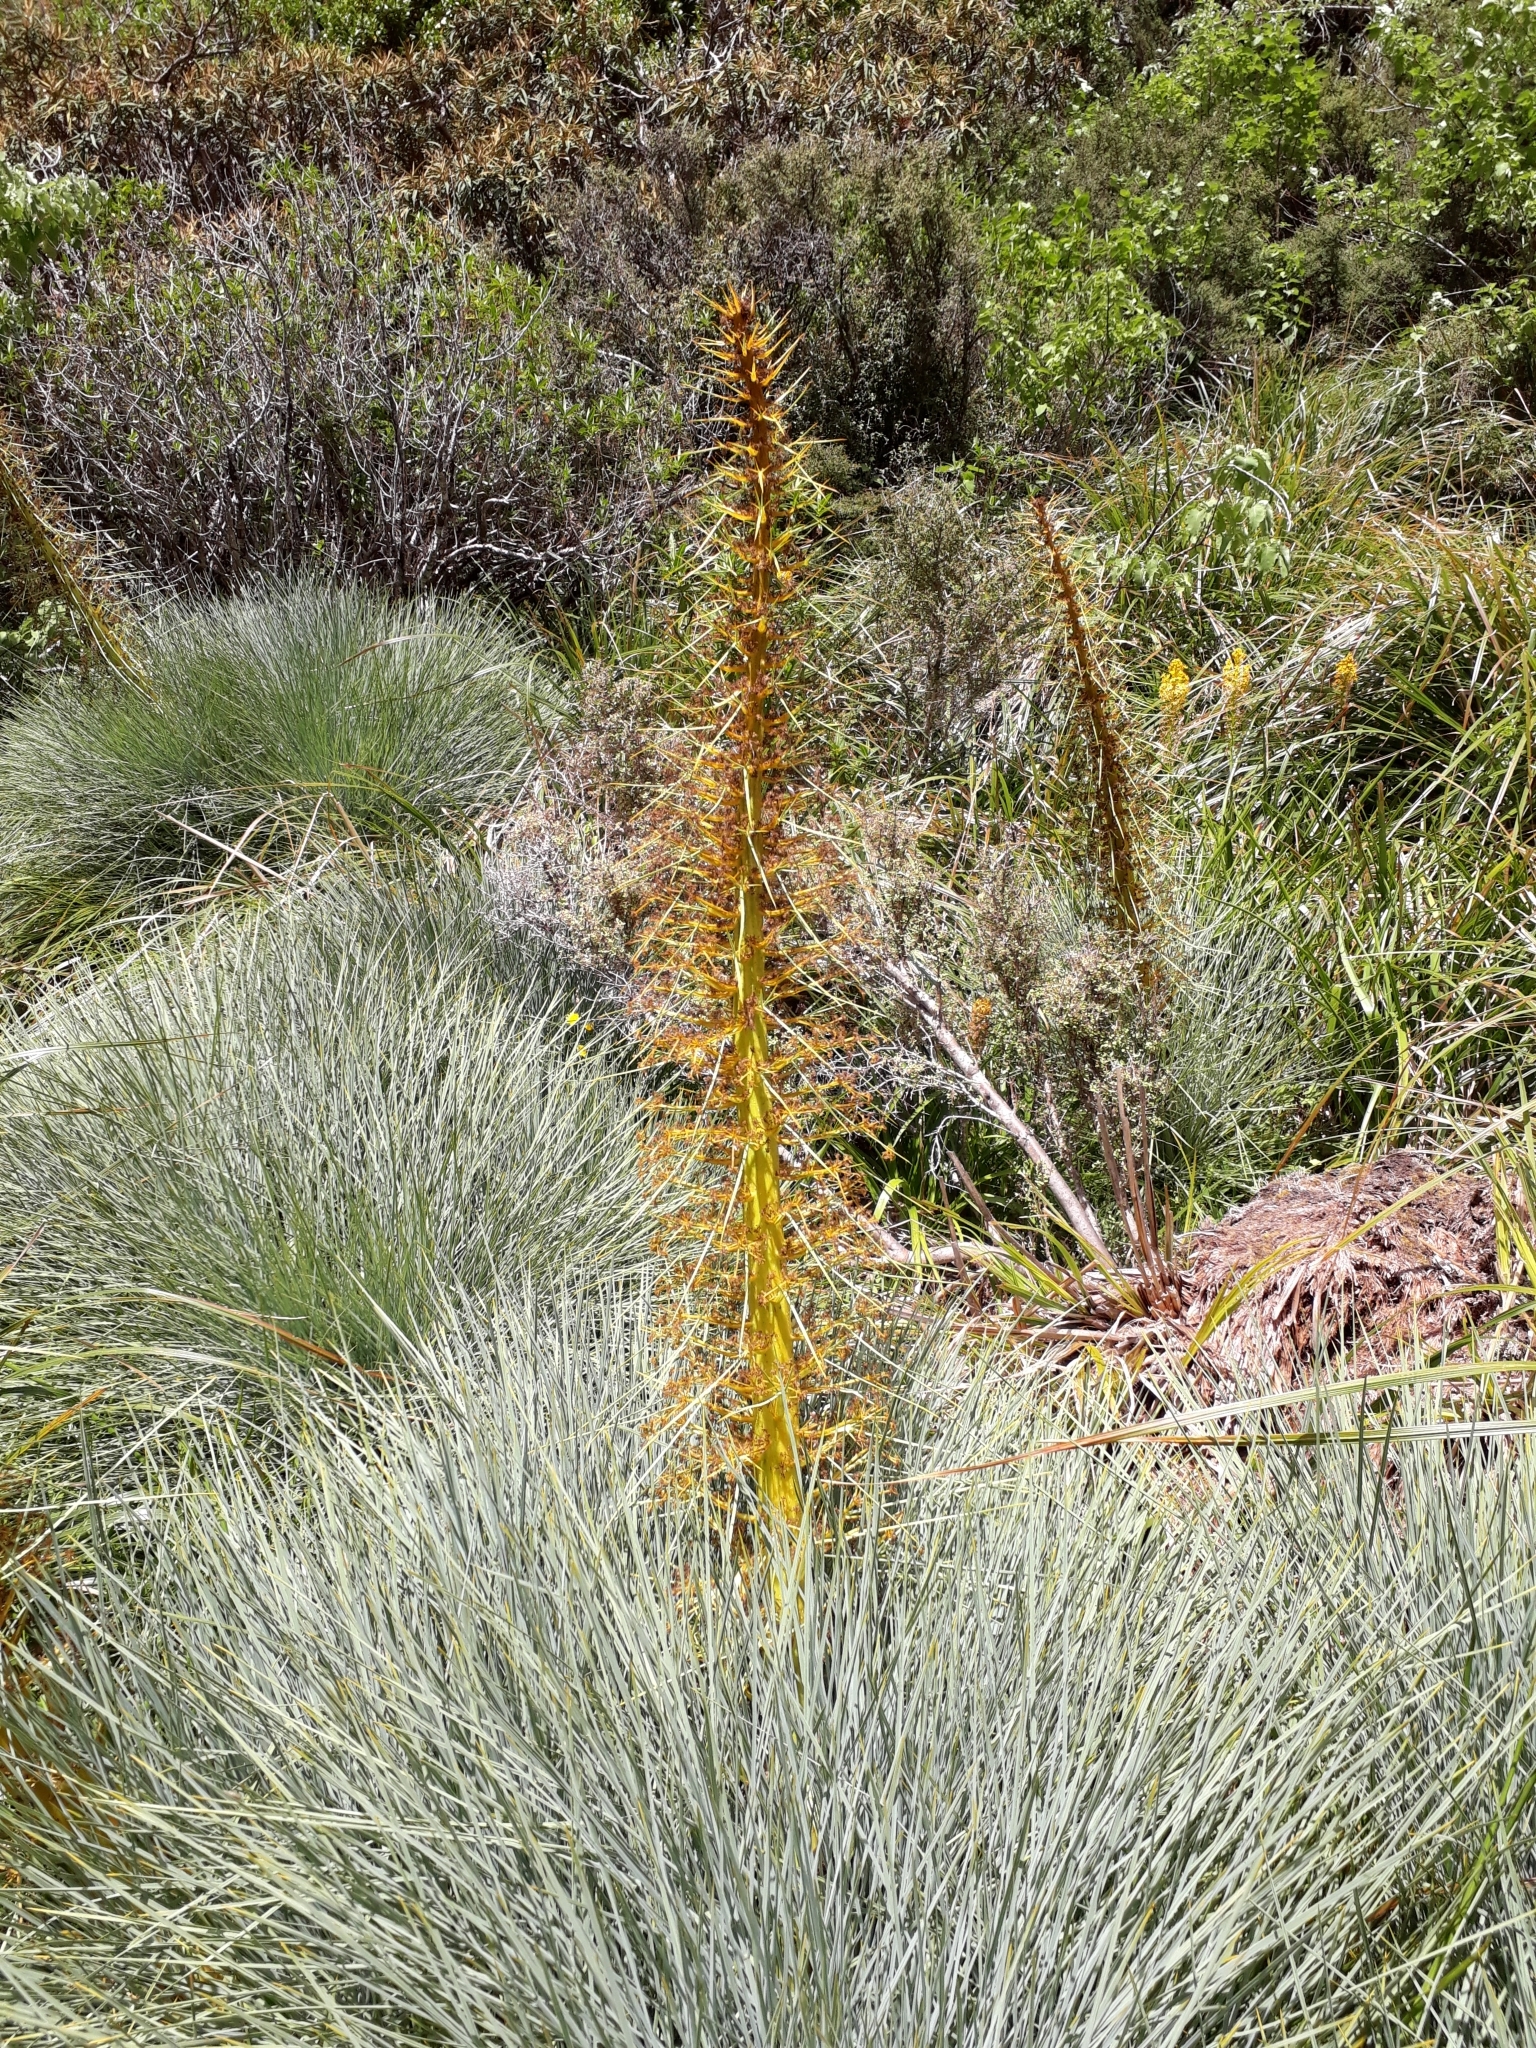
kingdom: Plantae
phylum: Tracheophyta
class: Magnoliopsida
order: Apiales
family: Apiaceae
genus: Aciphylla
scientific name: Aciphylla glaucescens
